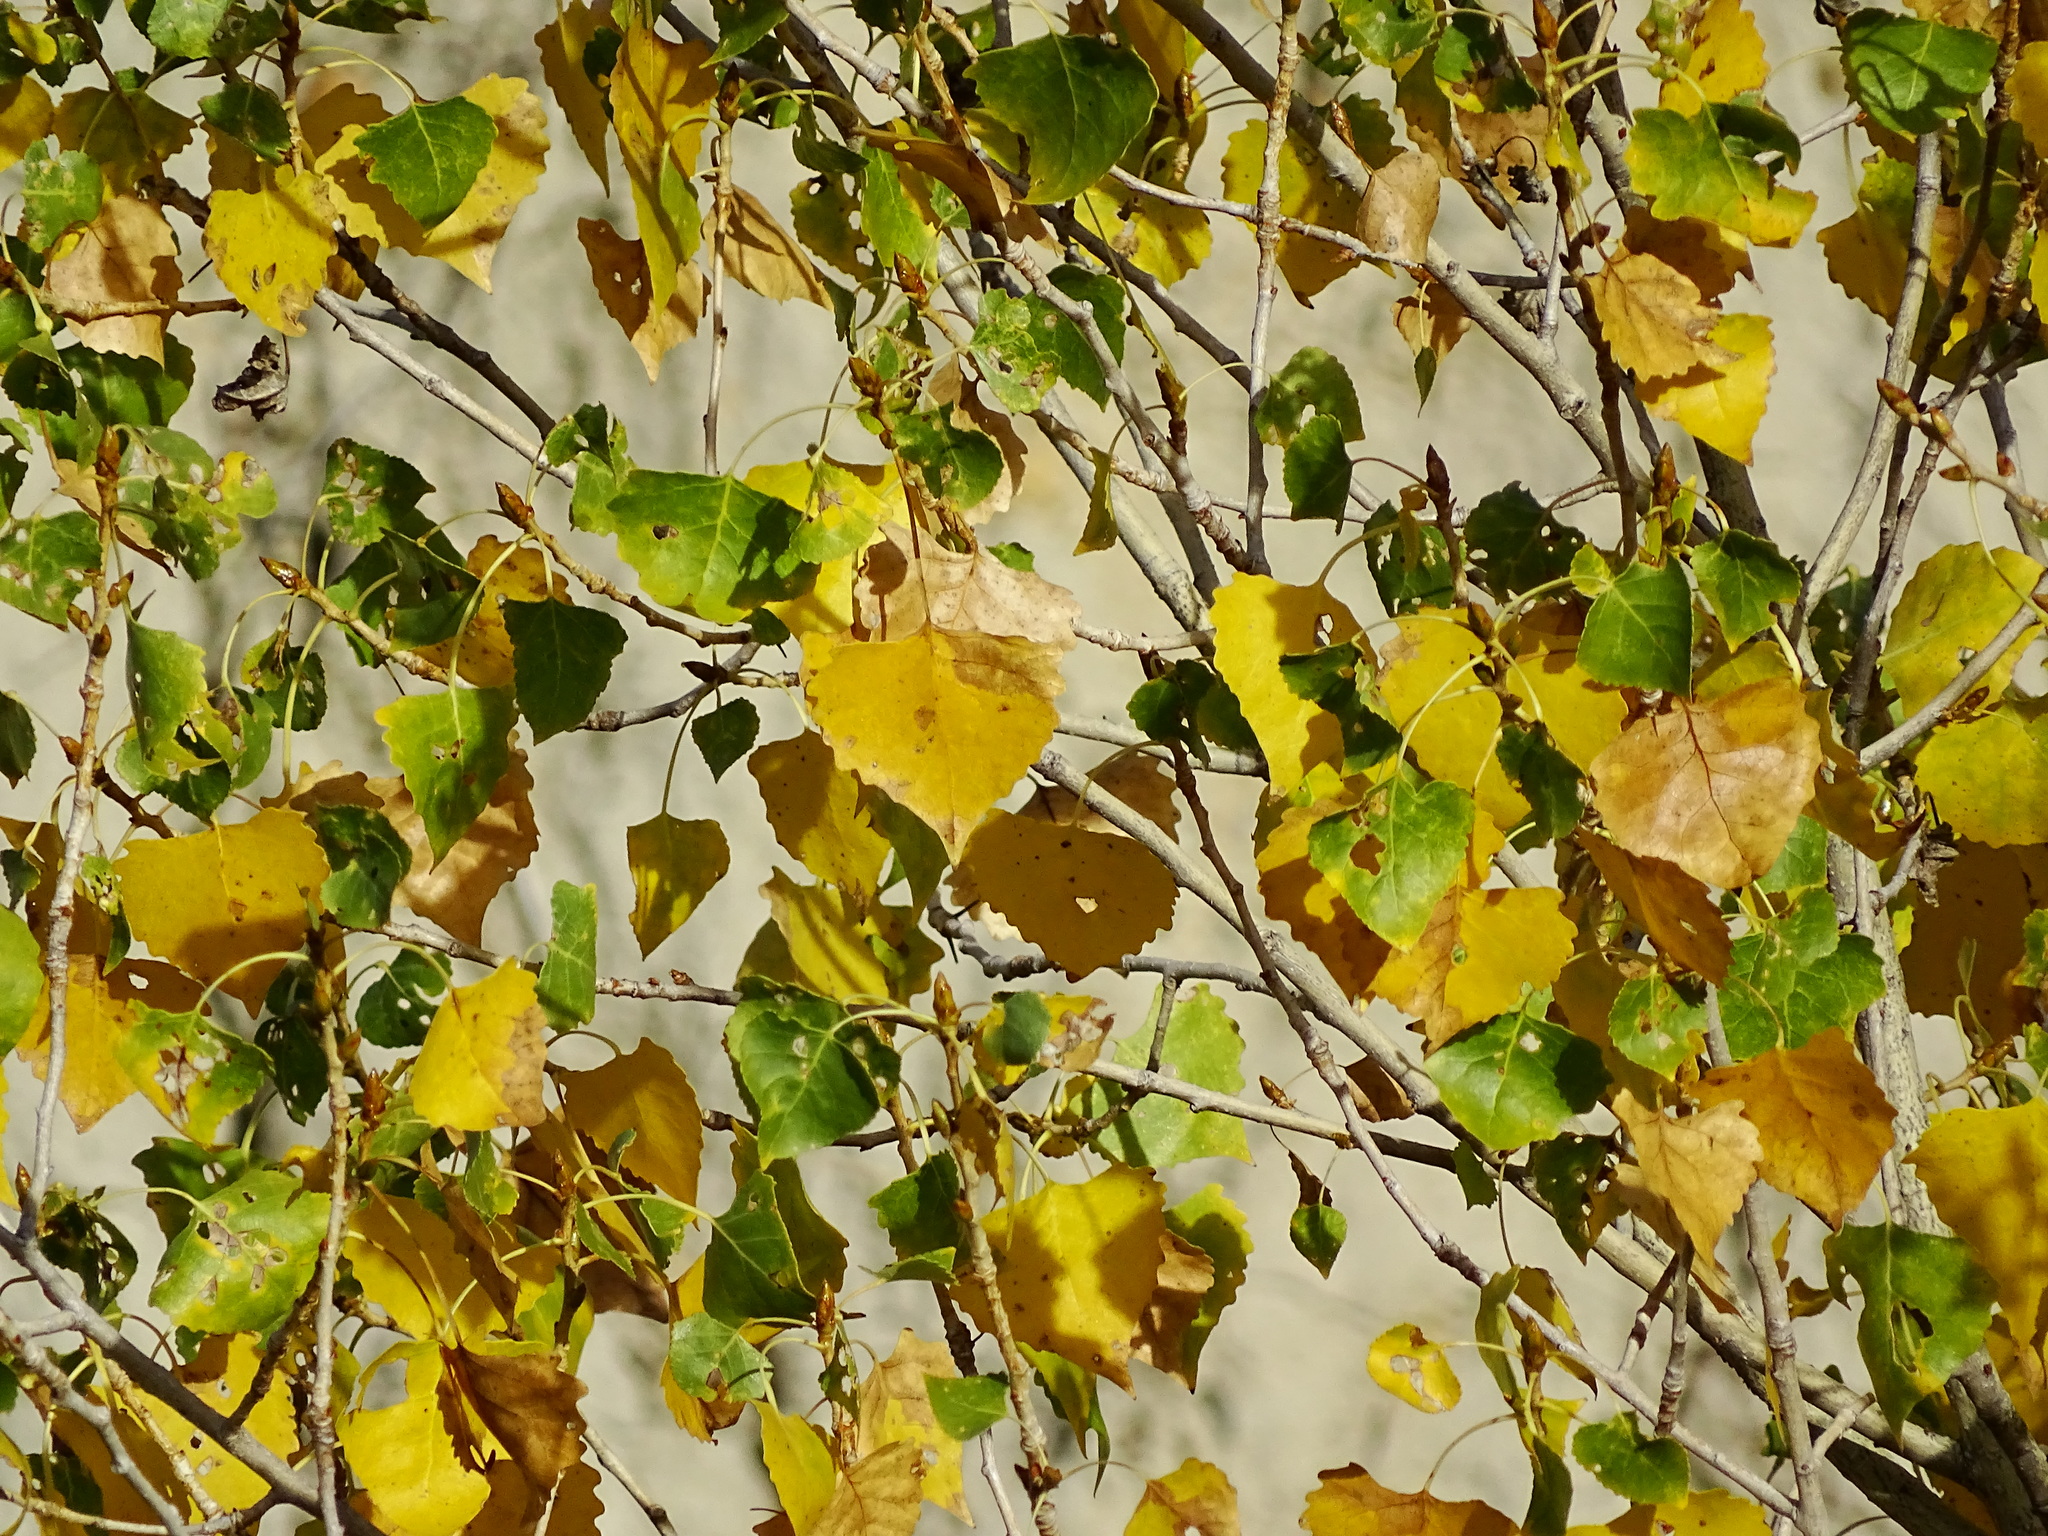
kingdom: Plantae
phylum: Tracheophyta
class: Magnoliopsida
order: Malpighiales
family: Salicaceae
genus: Populus
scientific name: Populus fremontii
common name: Fremont's cottonwood
